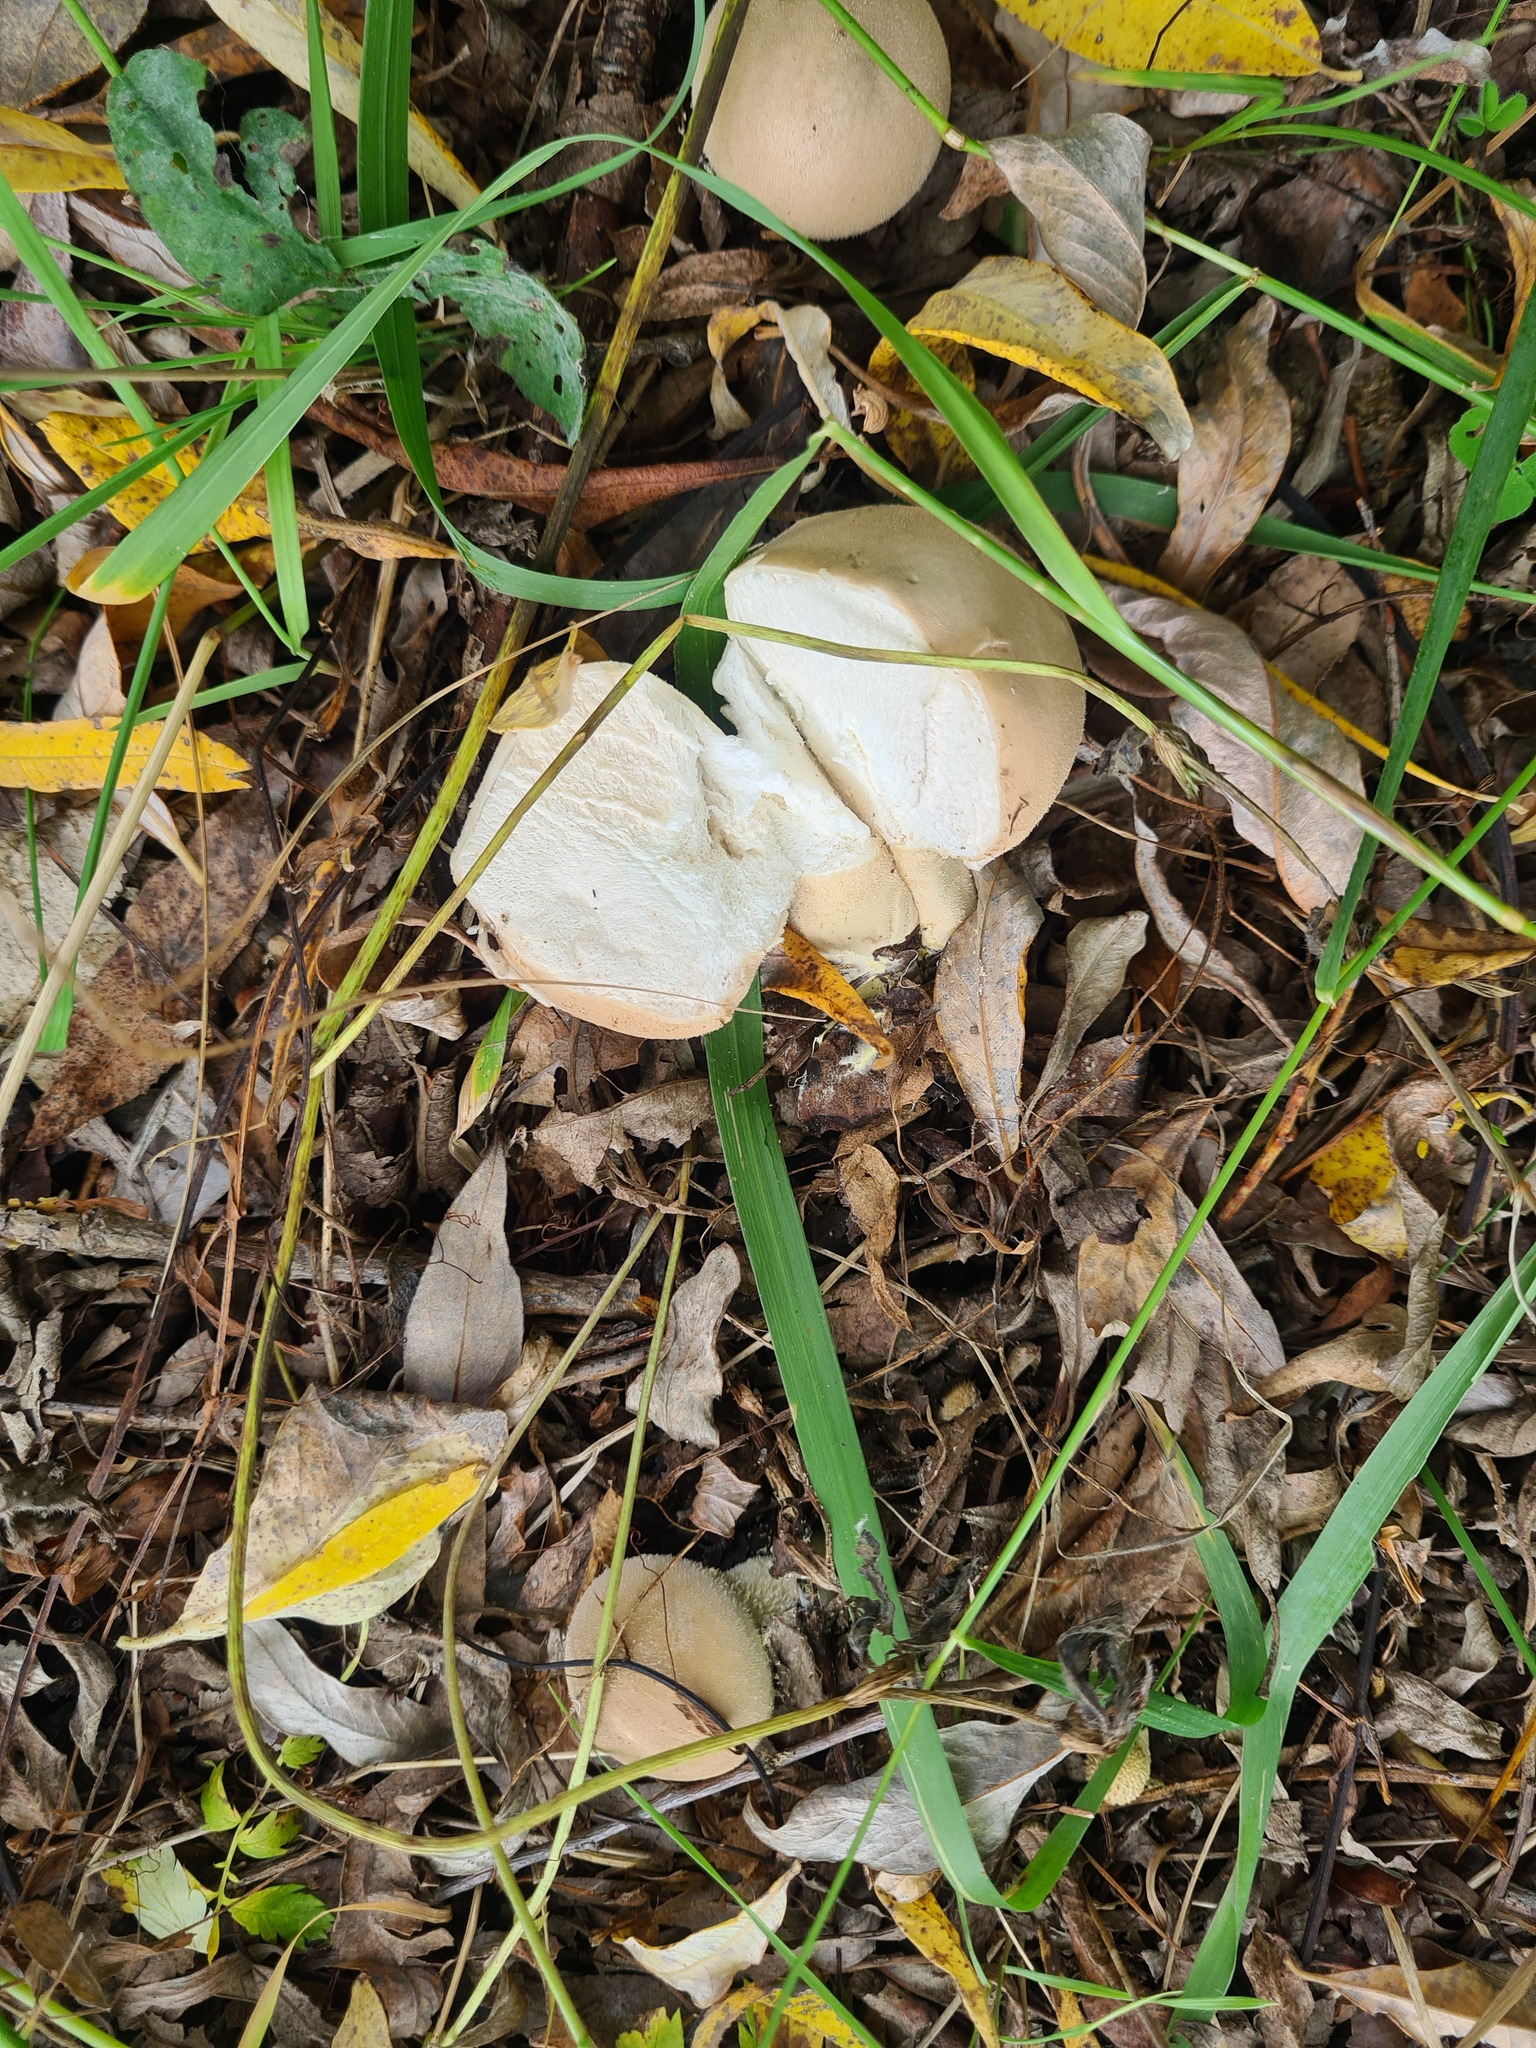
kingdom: Fungi
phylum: Basidiomycota
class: Agaricomycetes
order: Agaricales
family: Lycoperdaceae
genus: Lycoperdon
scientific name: Lycoperdon excipuliforme
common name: Pestle puffball
